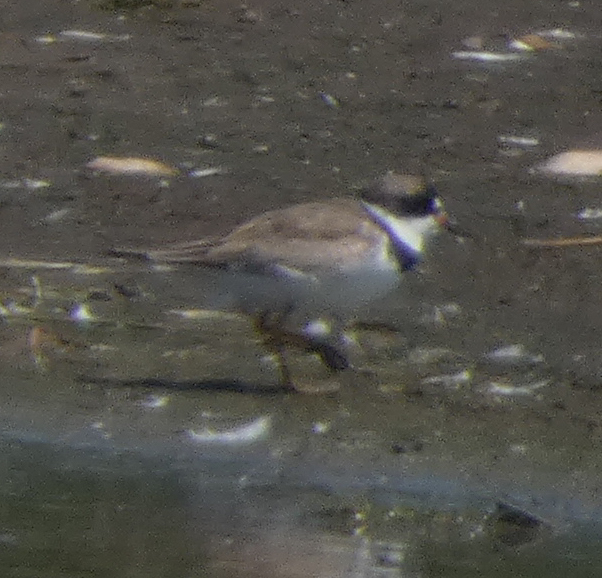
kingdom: Animalia
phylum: Chordata
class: Aves
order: Charadriiformes
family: Charadriidae
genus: Charadrius
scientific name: Charadrius semipalmatus
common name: Semipalmated plover
